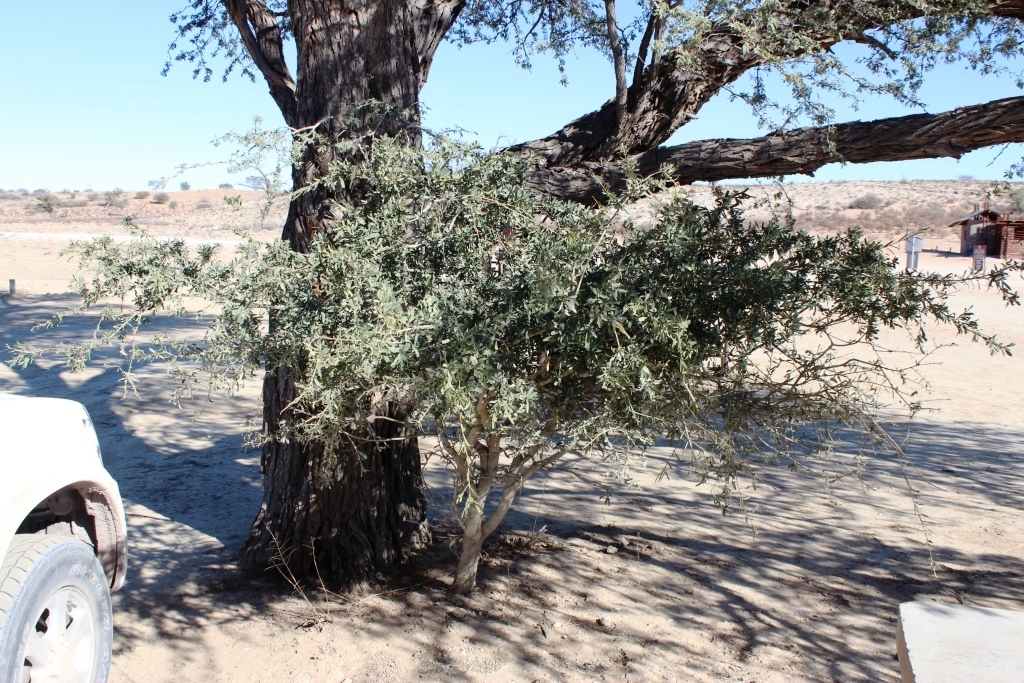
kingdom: Plantae
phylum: Tracheophyta
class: Magnoliopsida
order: Brassicales
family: Capparaceae
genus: Boscia
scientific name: Boscia albitrunca
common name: Caper bush
